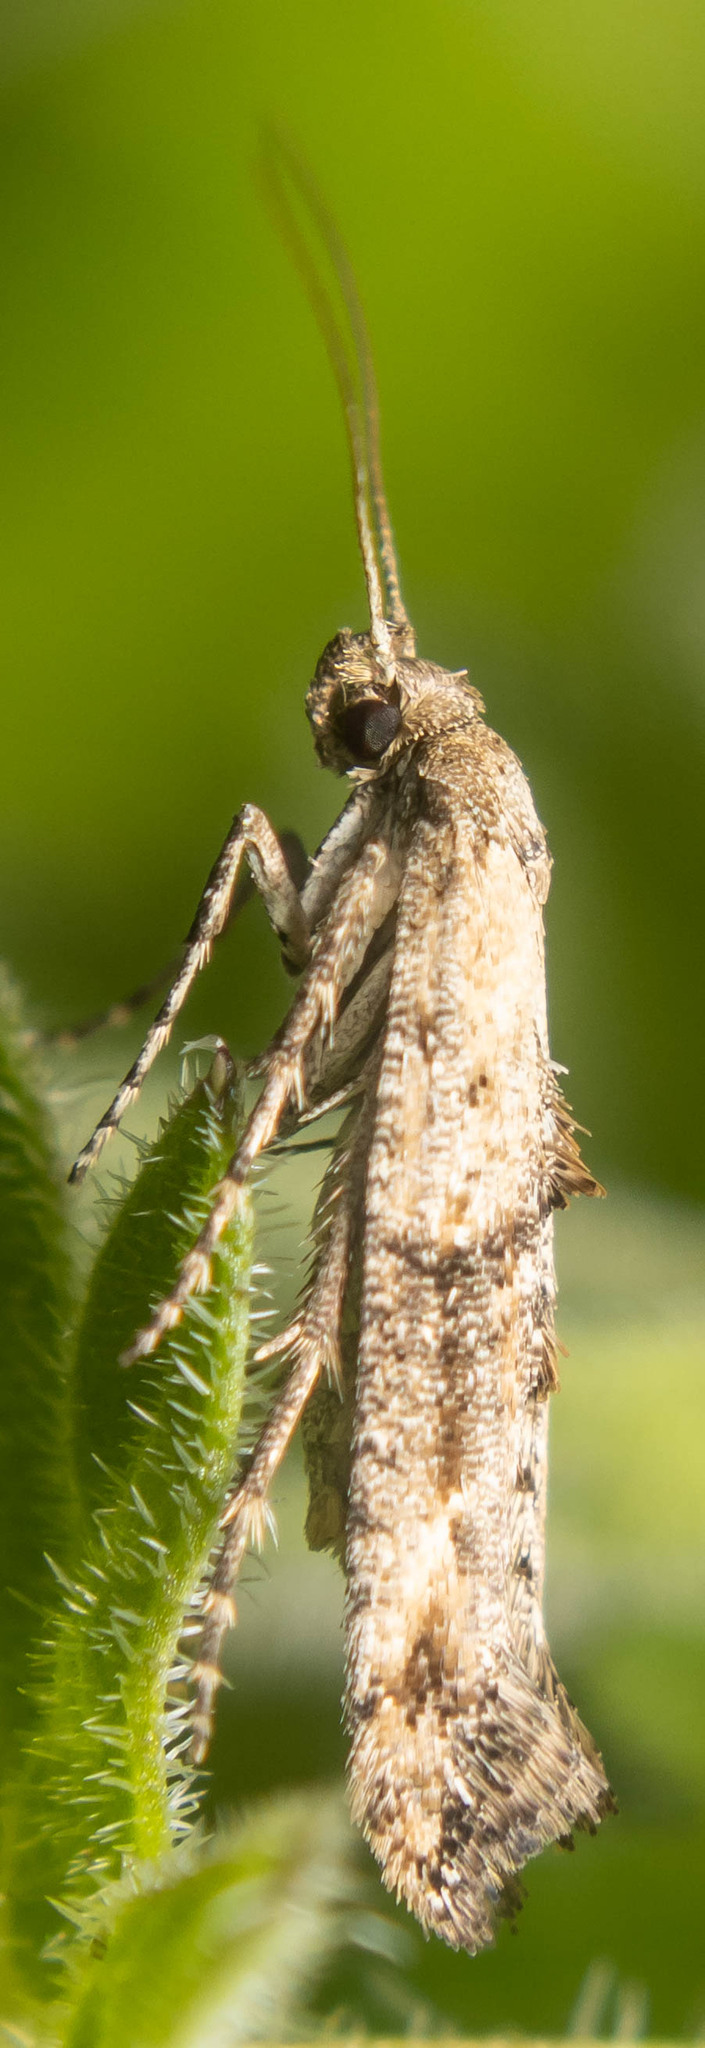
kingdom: Animalia
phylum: Arthropoda
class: Insecta
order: Lepidoptera
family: Epermeniidae
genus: Epermenia
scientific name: Epermenia chaerophyllellus
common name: Garden lance-wing
